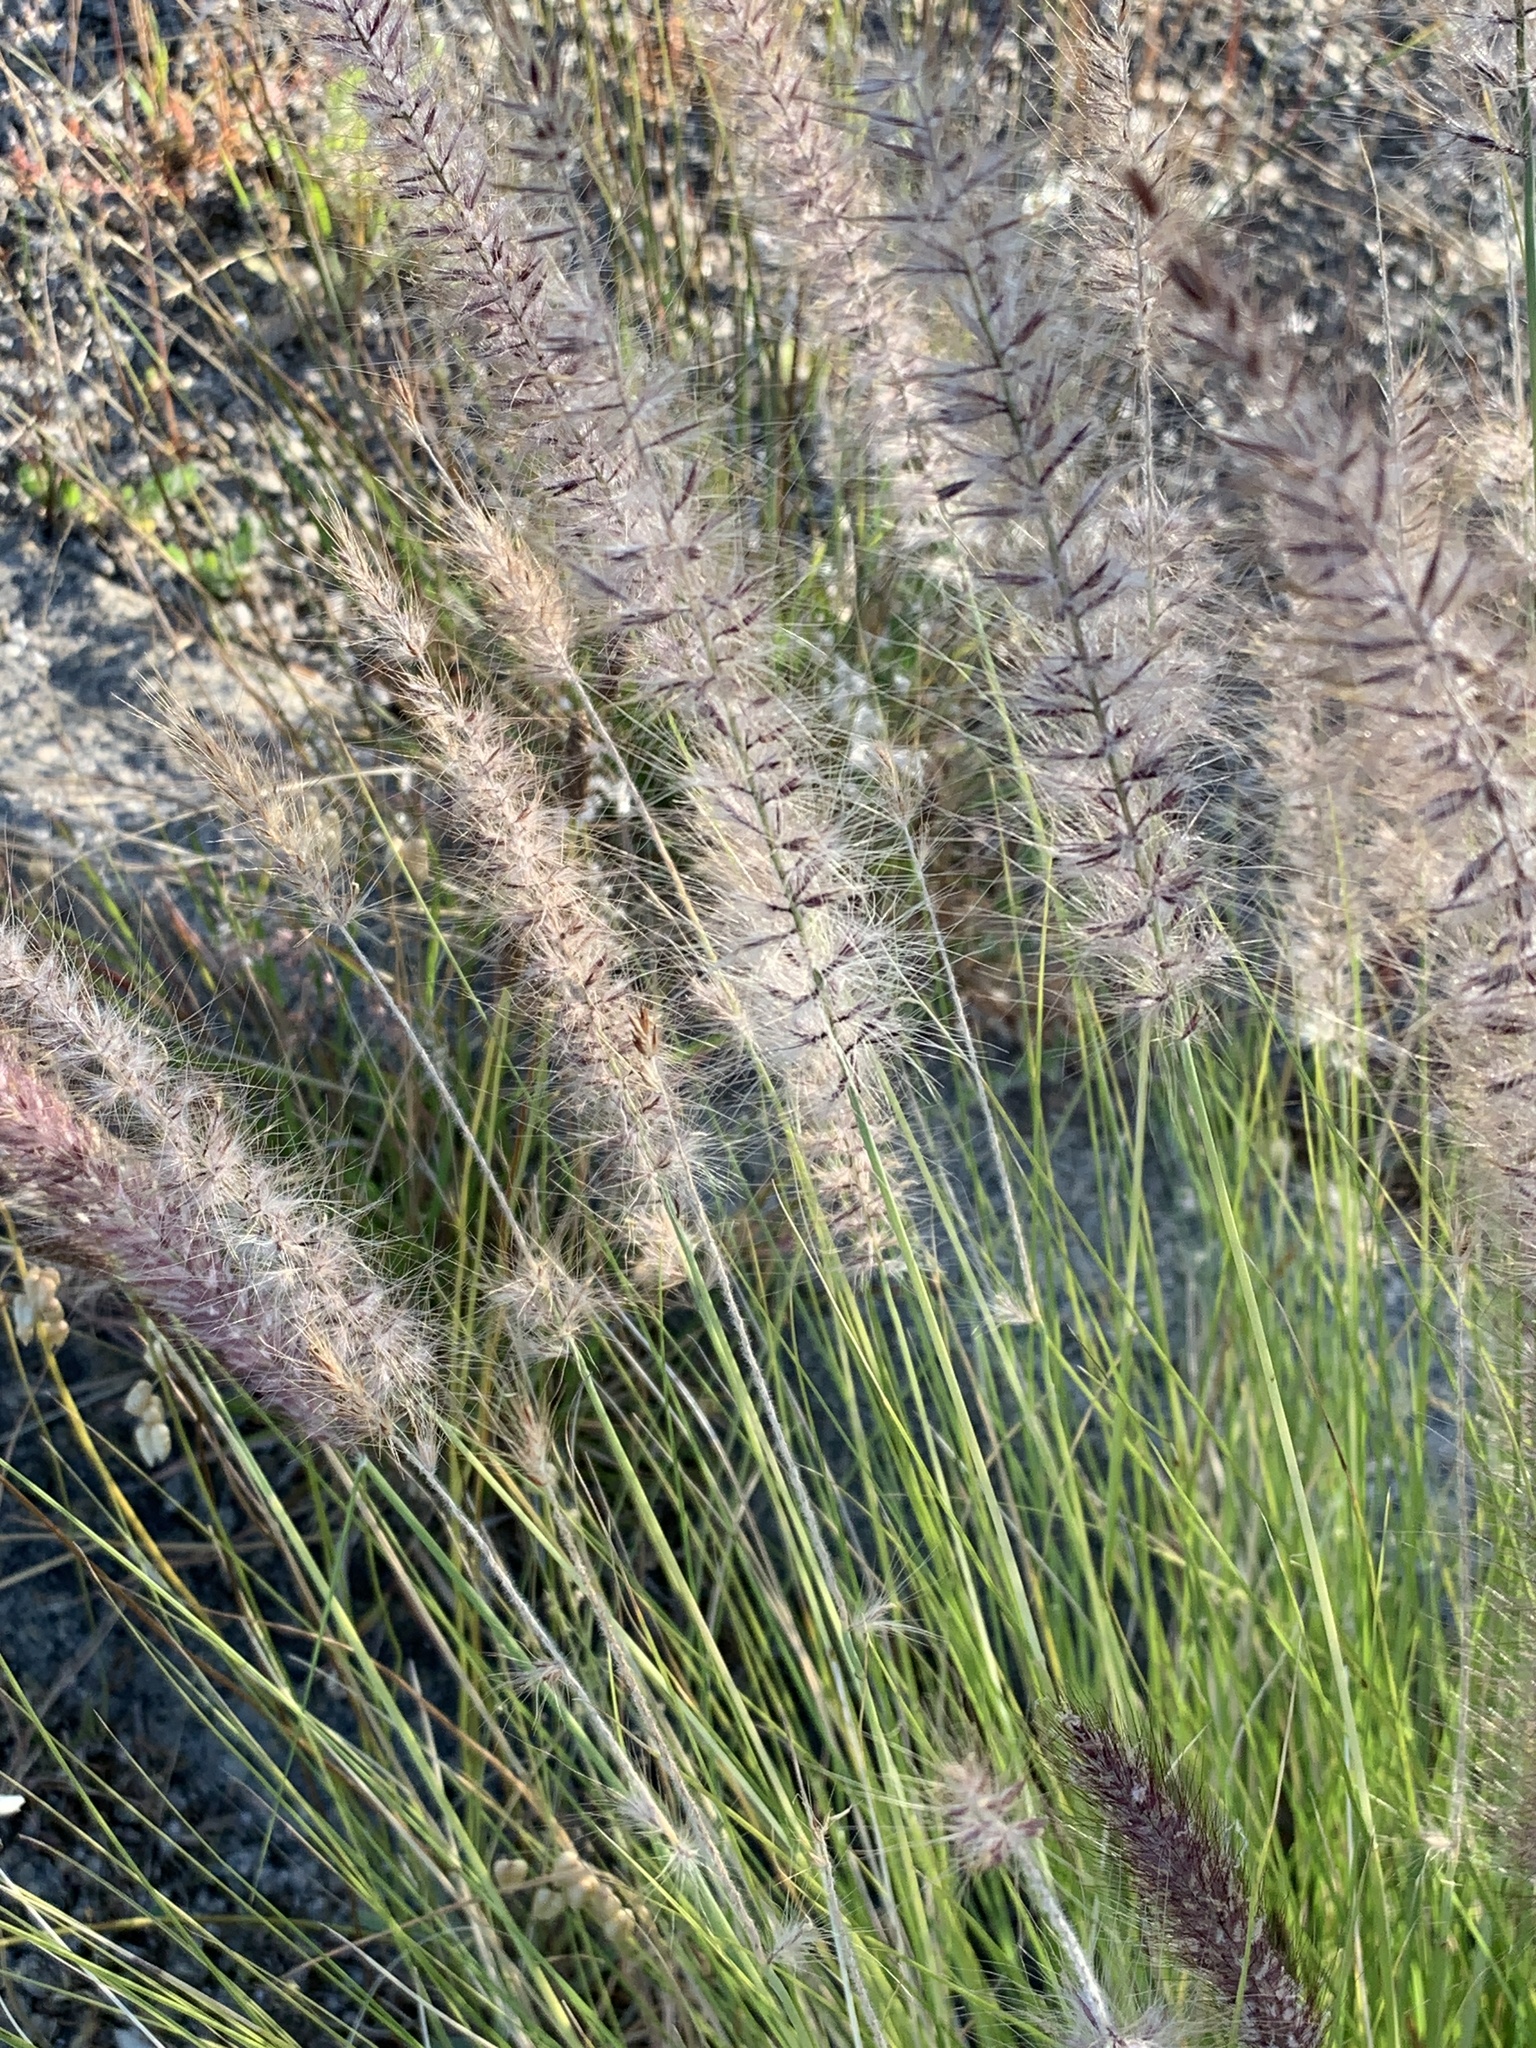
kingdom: Plantae
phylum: Tracheophyta
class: Liliopsida
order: Poales
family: Poaceae
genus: Cenchrus
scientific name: Cenchrus setaceus
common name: Crimson fountaingrass
